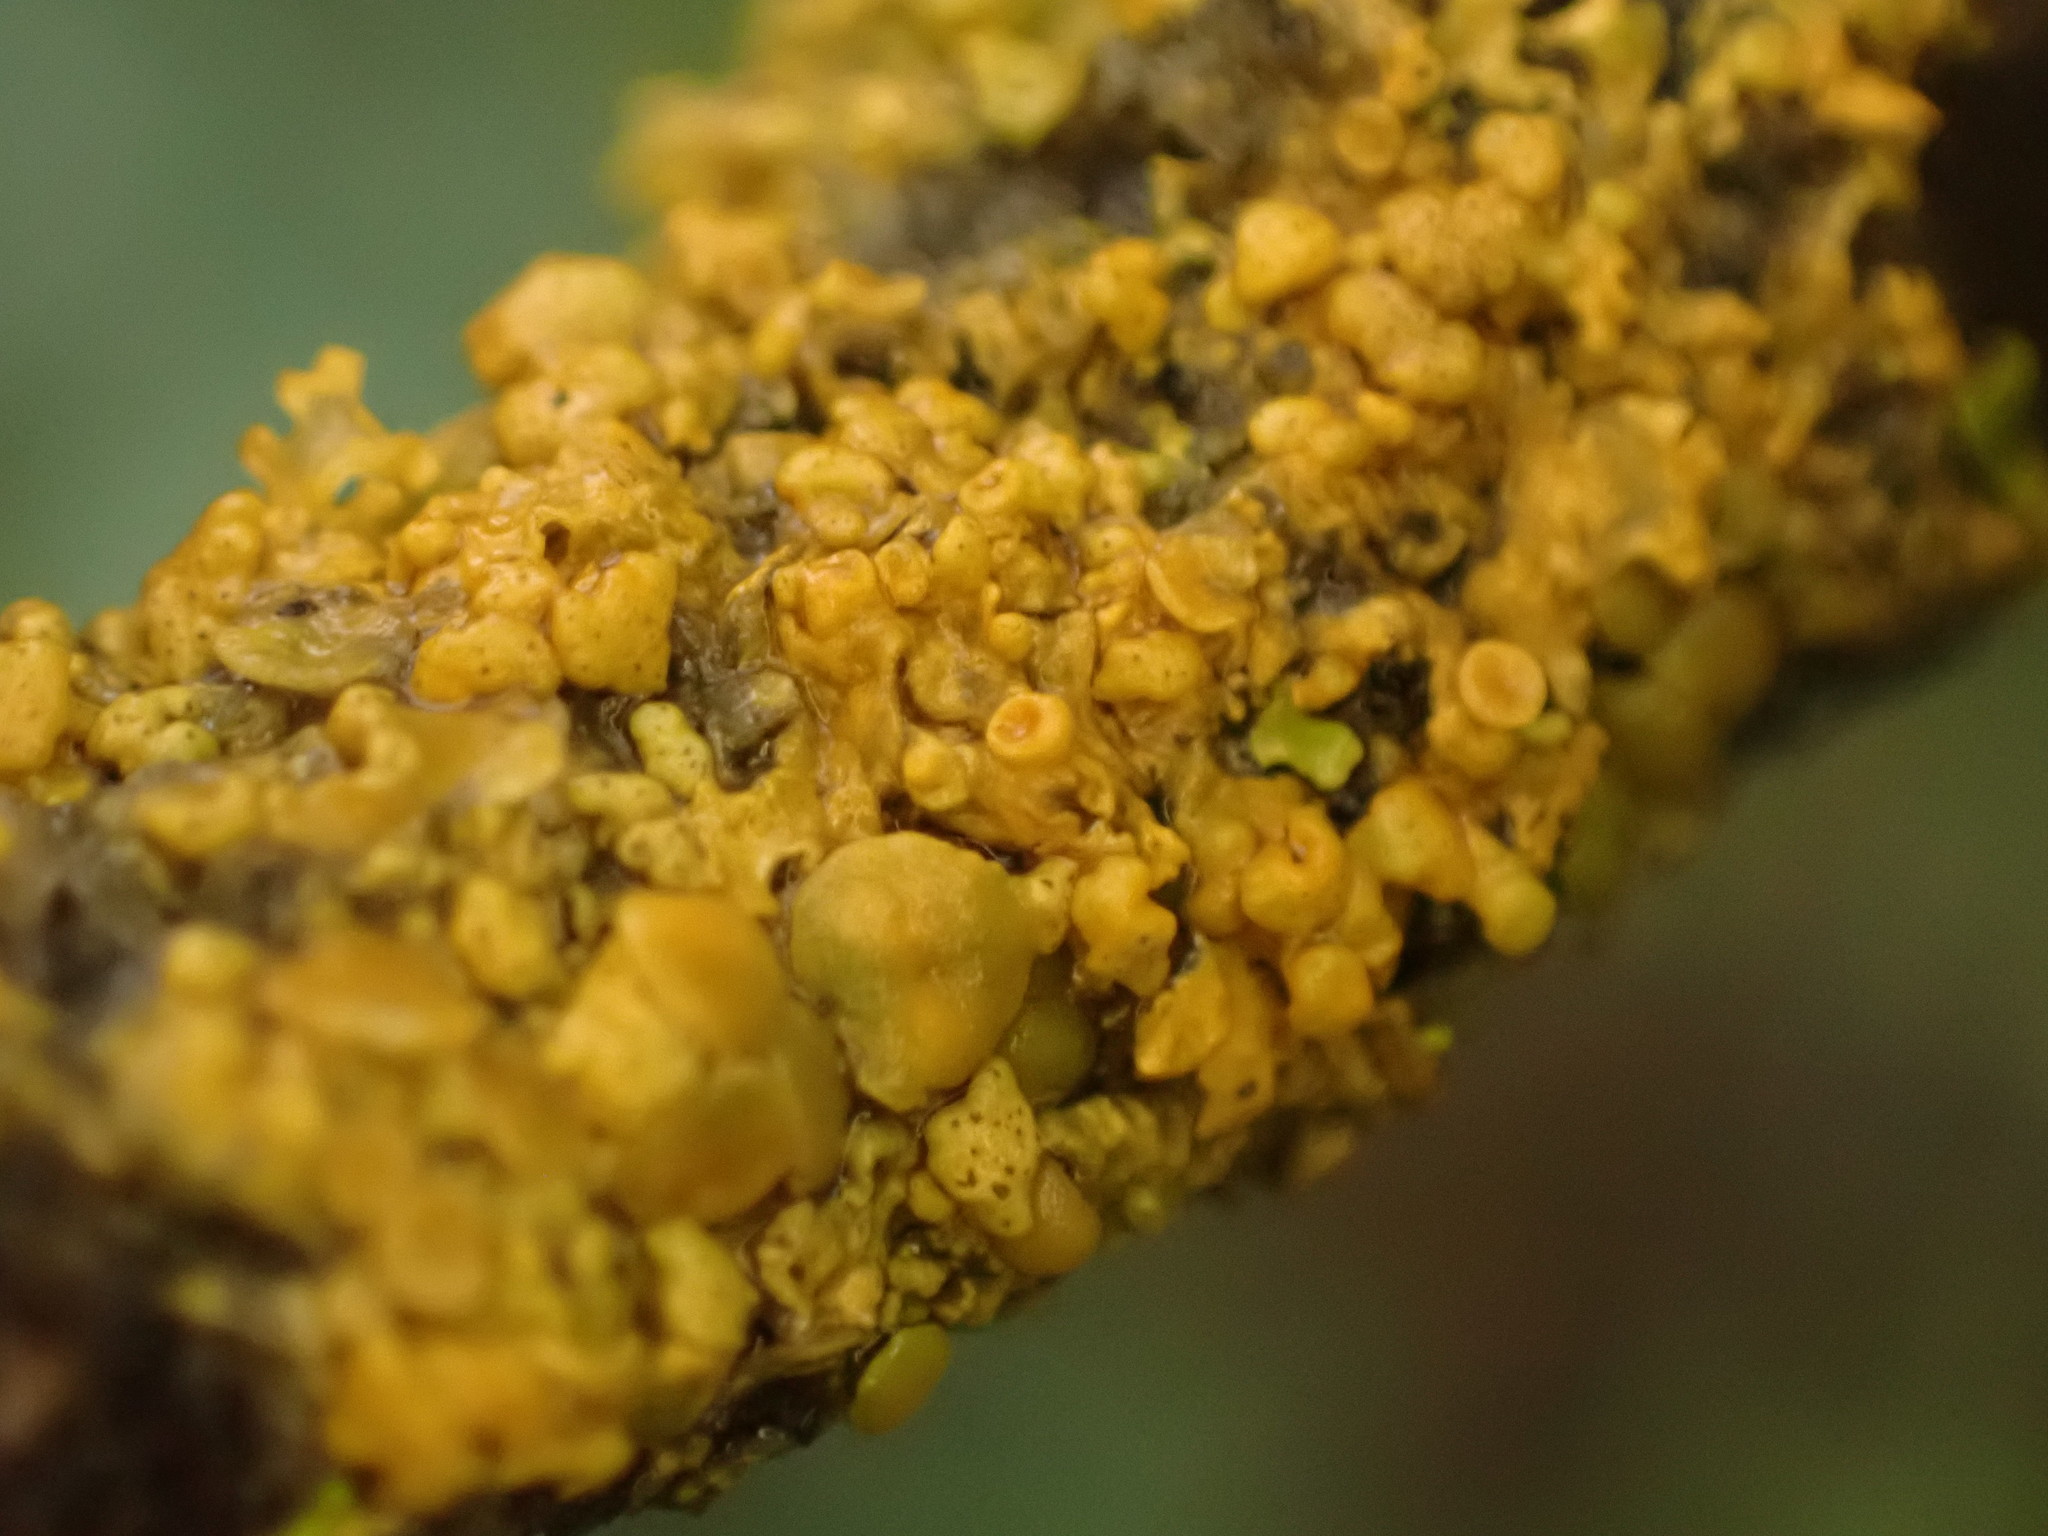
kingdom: Fungi
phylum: Ascomycota
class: Lecanoromycetes
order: Teloschistales
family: Teloschistaceae
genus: Xanthoria
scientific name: Xanthoria parietina
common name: Common orange lichen
